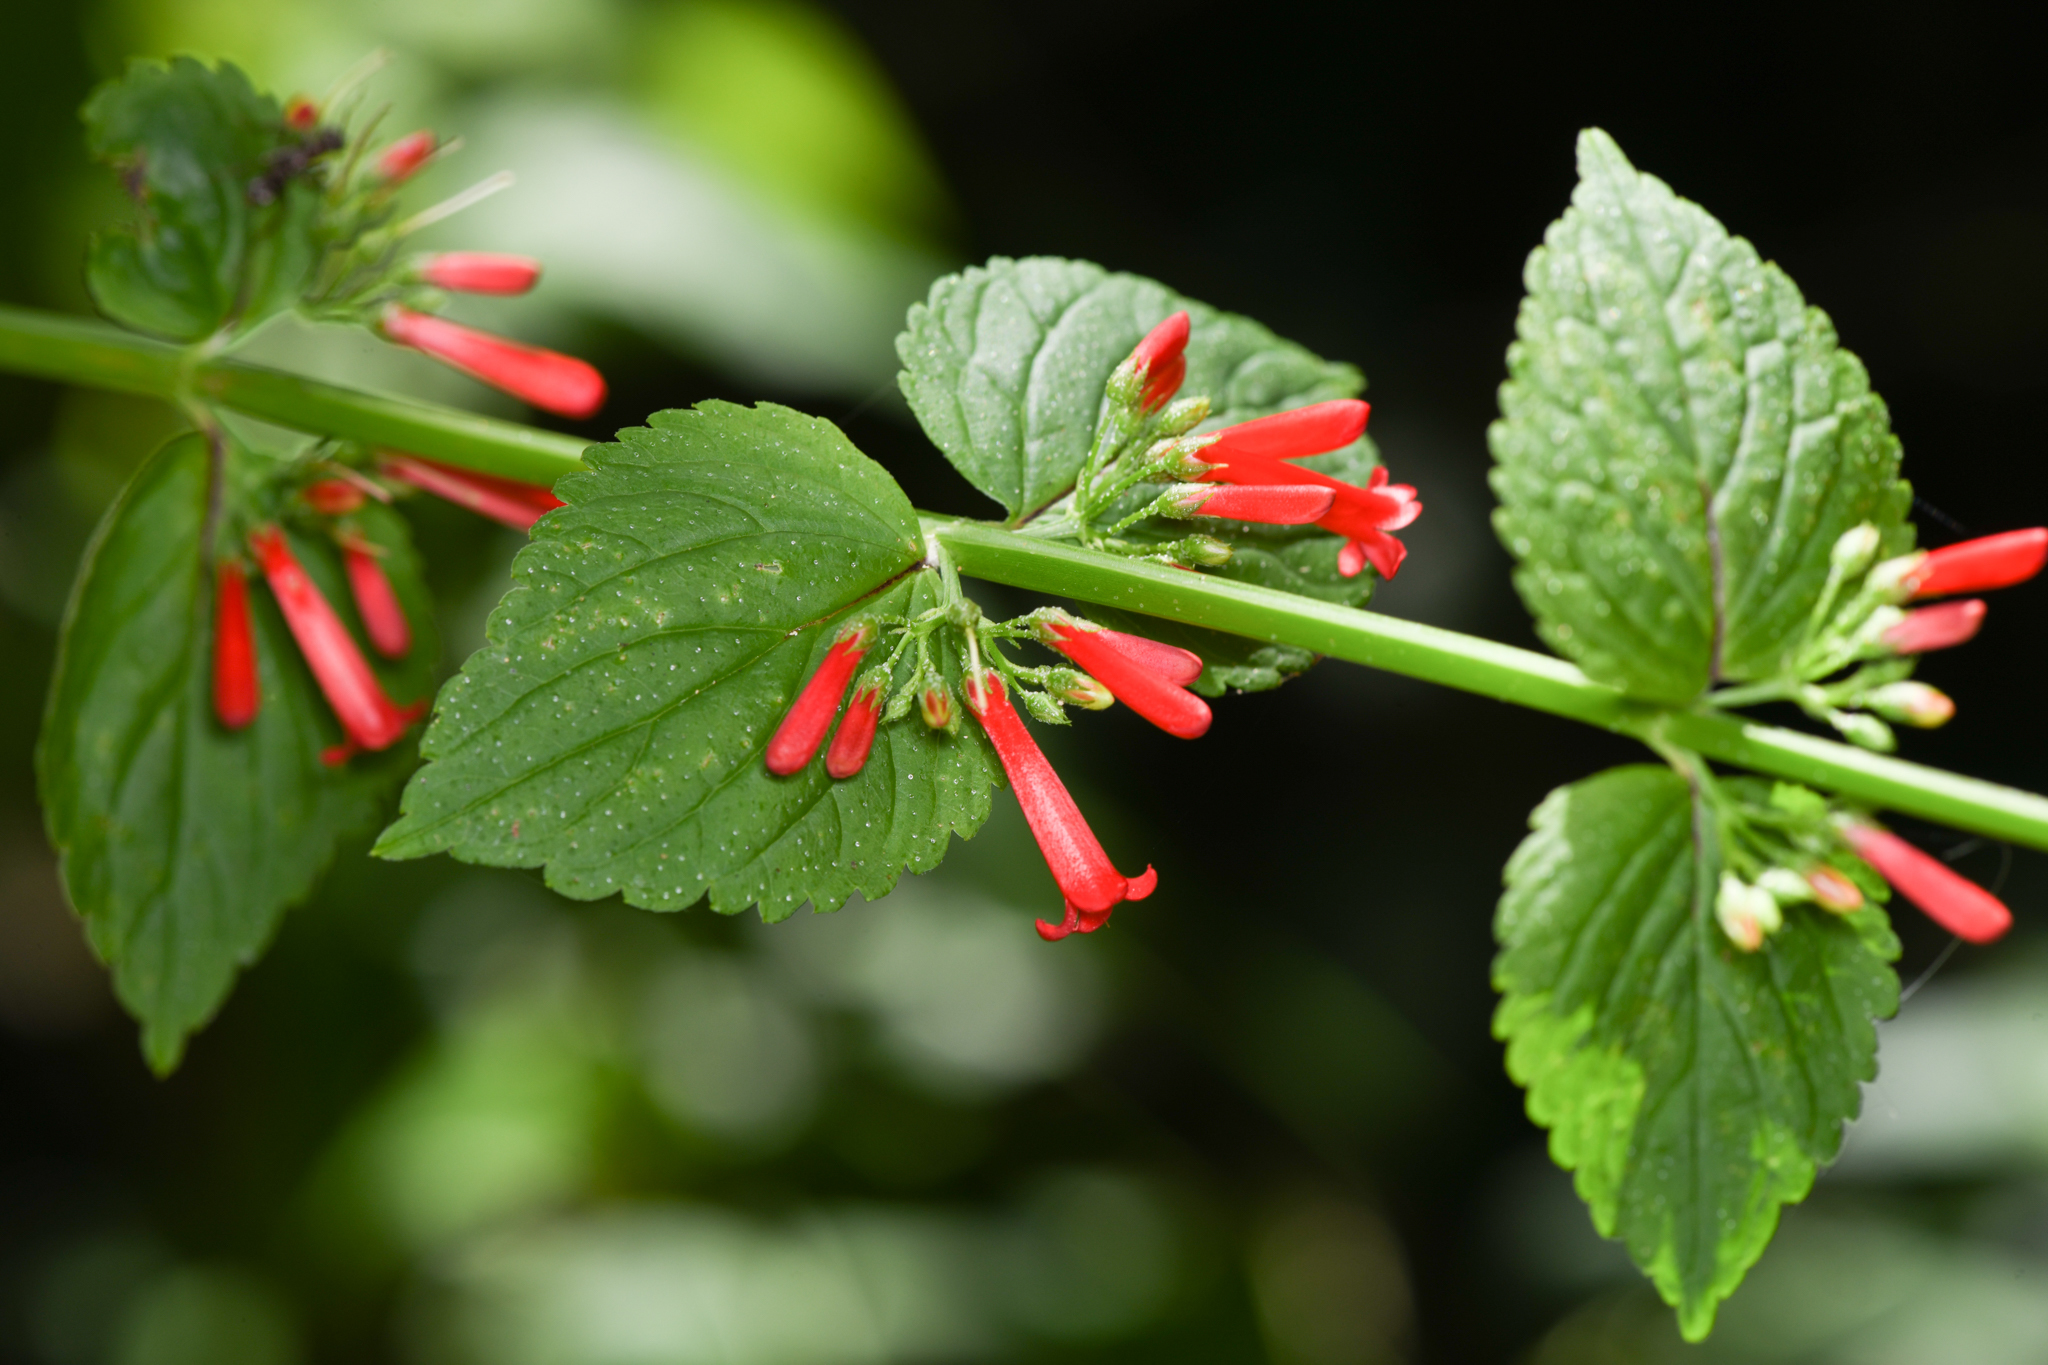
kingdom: Plantae
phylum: Tracheophyta
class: Magnoliopsida
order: Lamiales
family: Plantaginaceae
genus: Russelia
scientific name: Russelia sarmentosa
